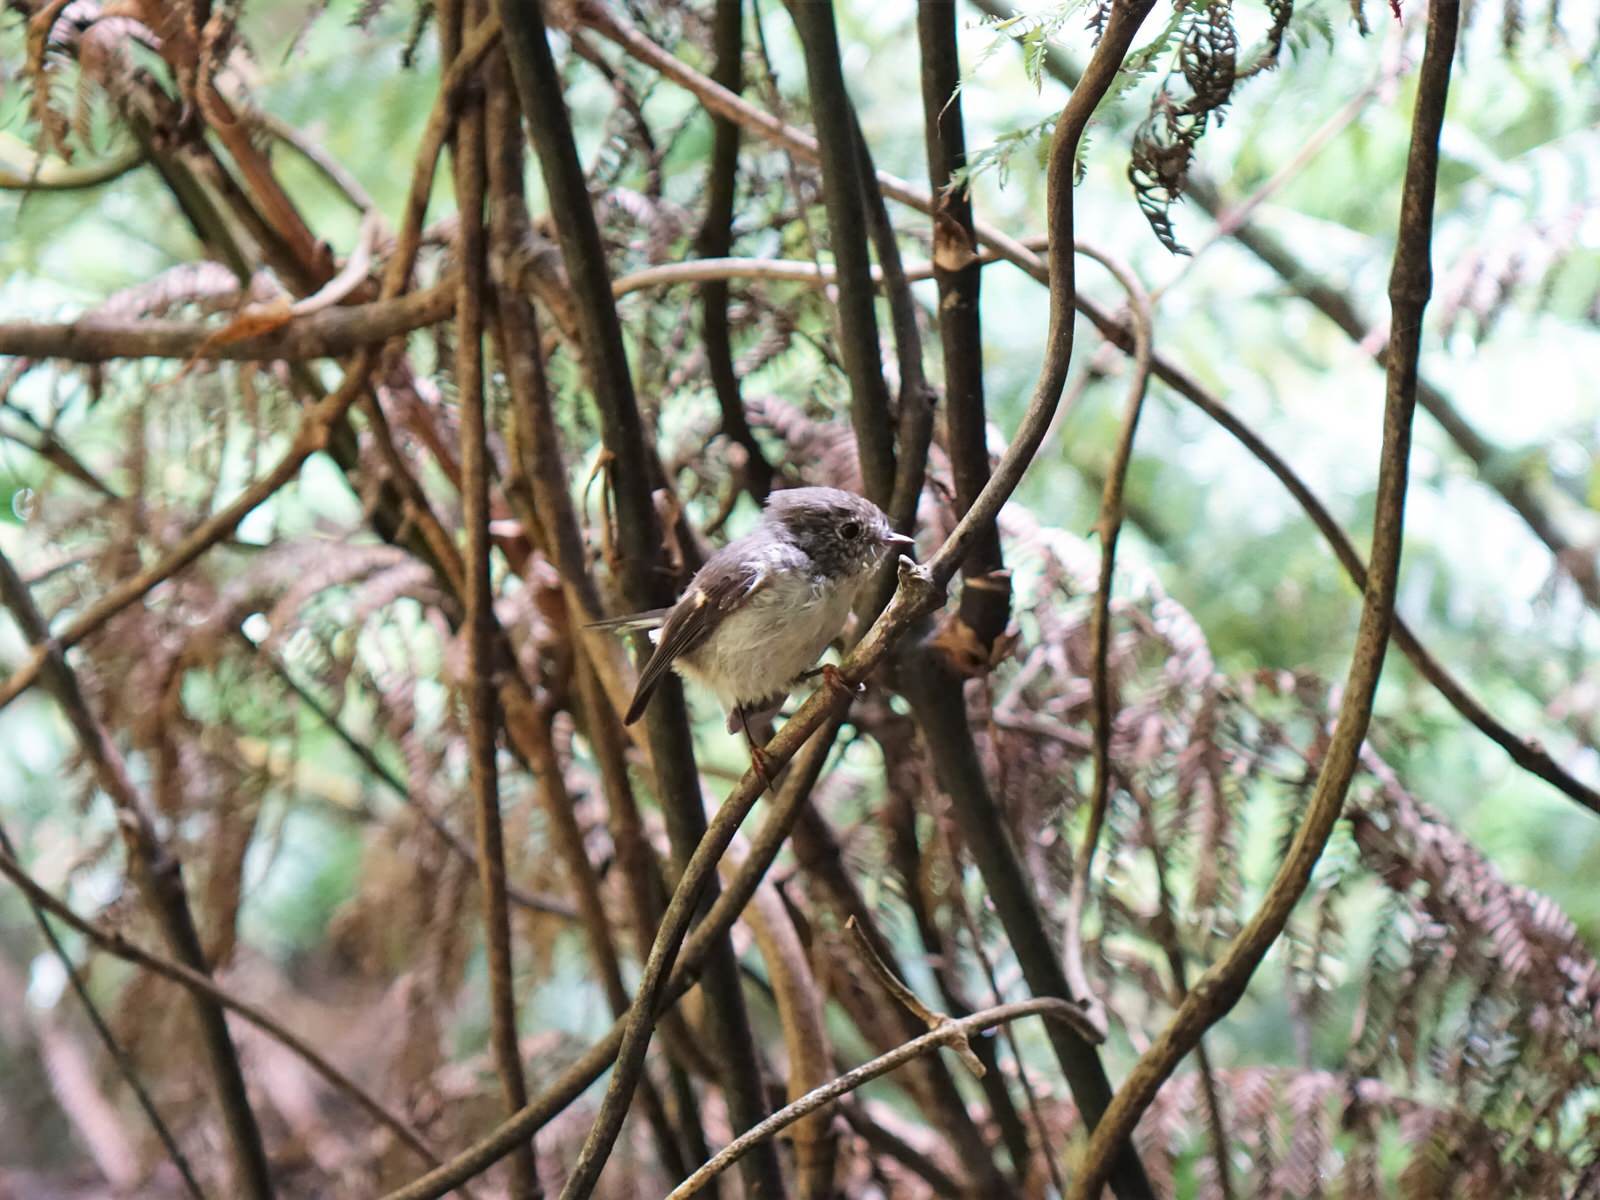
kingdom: Animalia
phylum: Chordata
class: Aves
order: Passeriformes
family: Petroicidae
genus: Petroica
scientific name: Petroica macrocephala
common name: Tomtit
